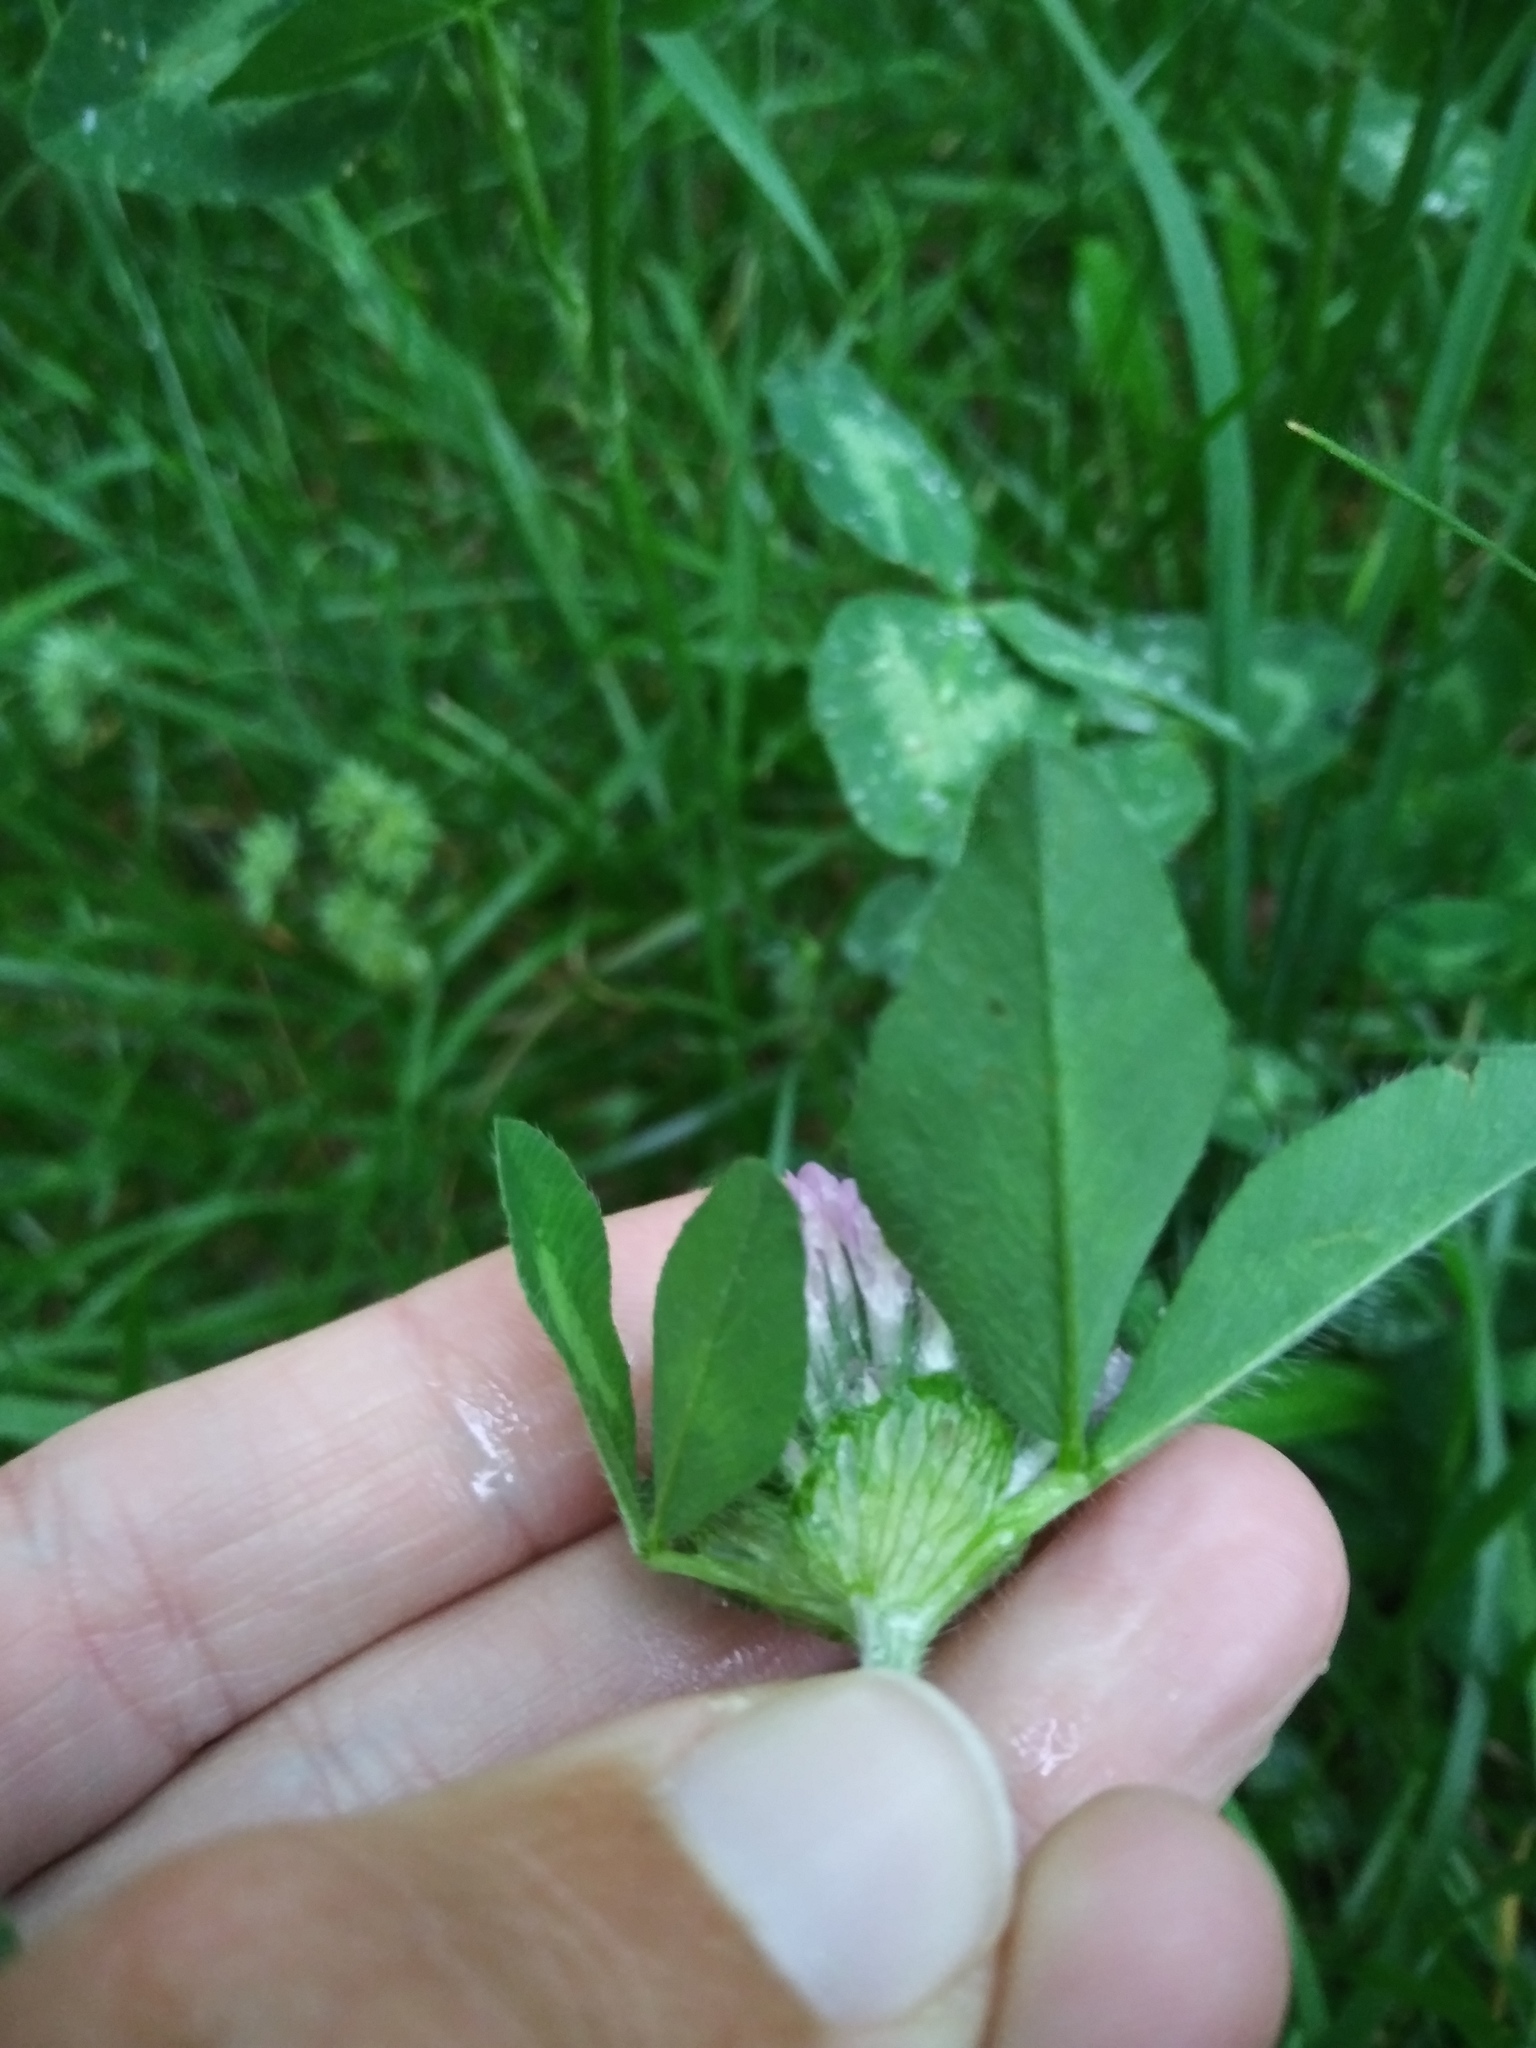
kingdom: Plantae
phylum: Tracheophyta
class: Magnoliopsida
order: Fabales
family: Fabaceae
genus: Trifolium
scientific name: Trifolium pratense
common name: Red clover
